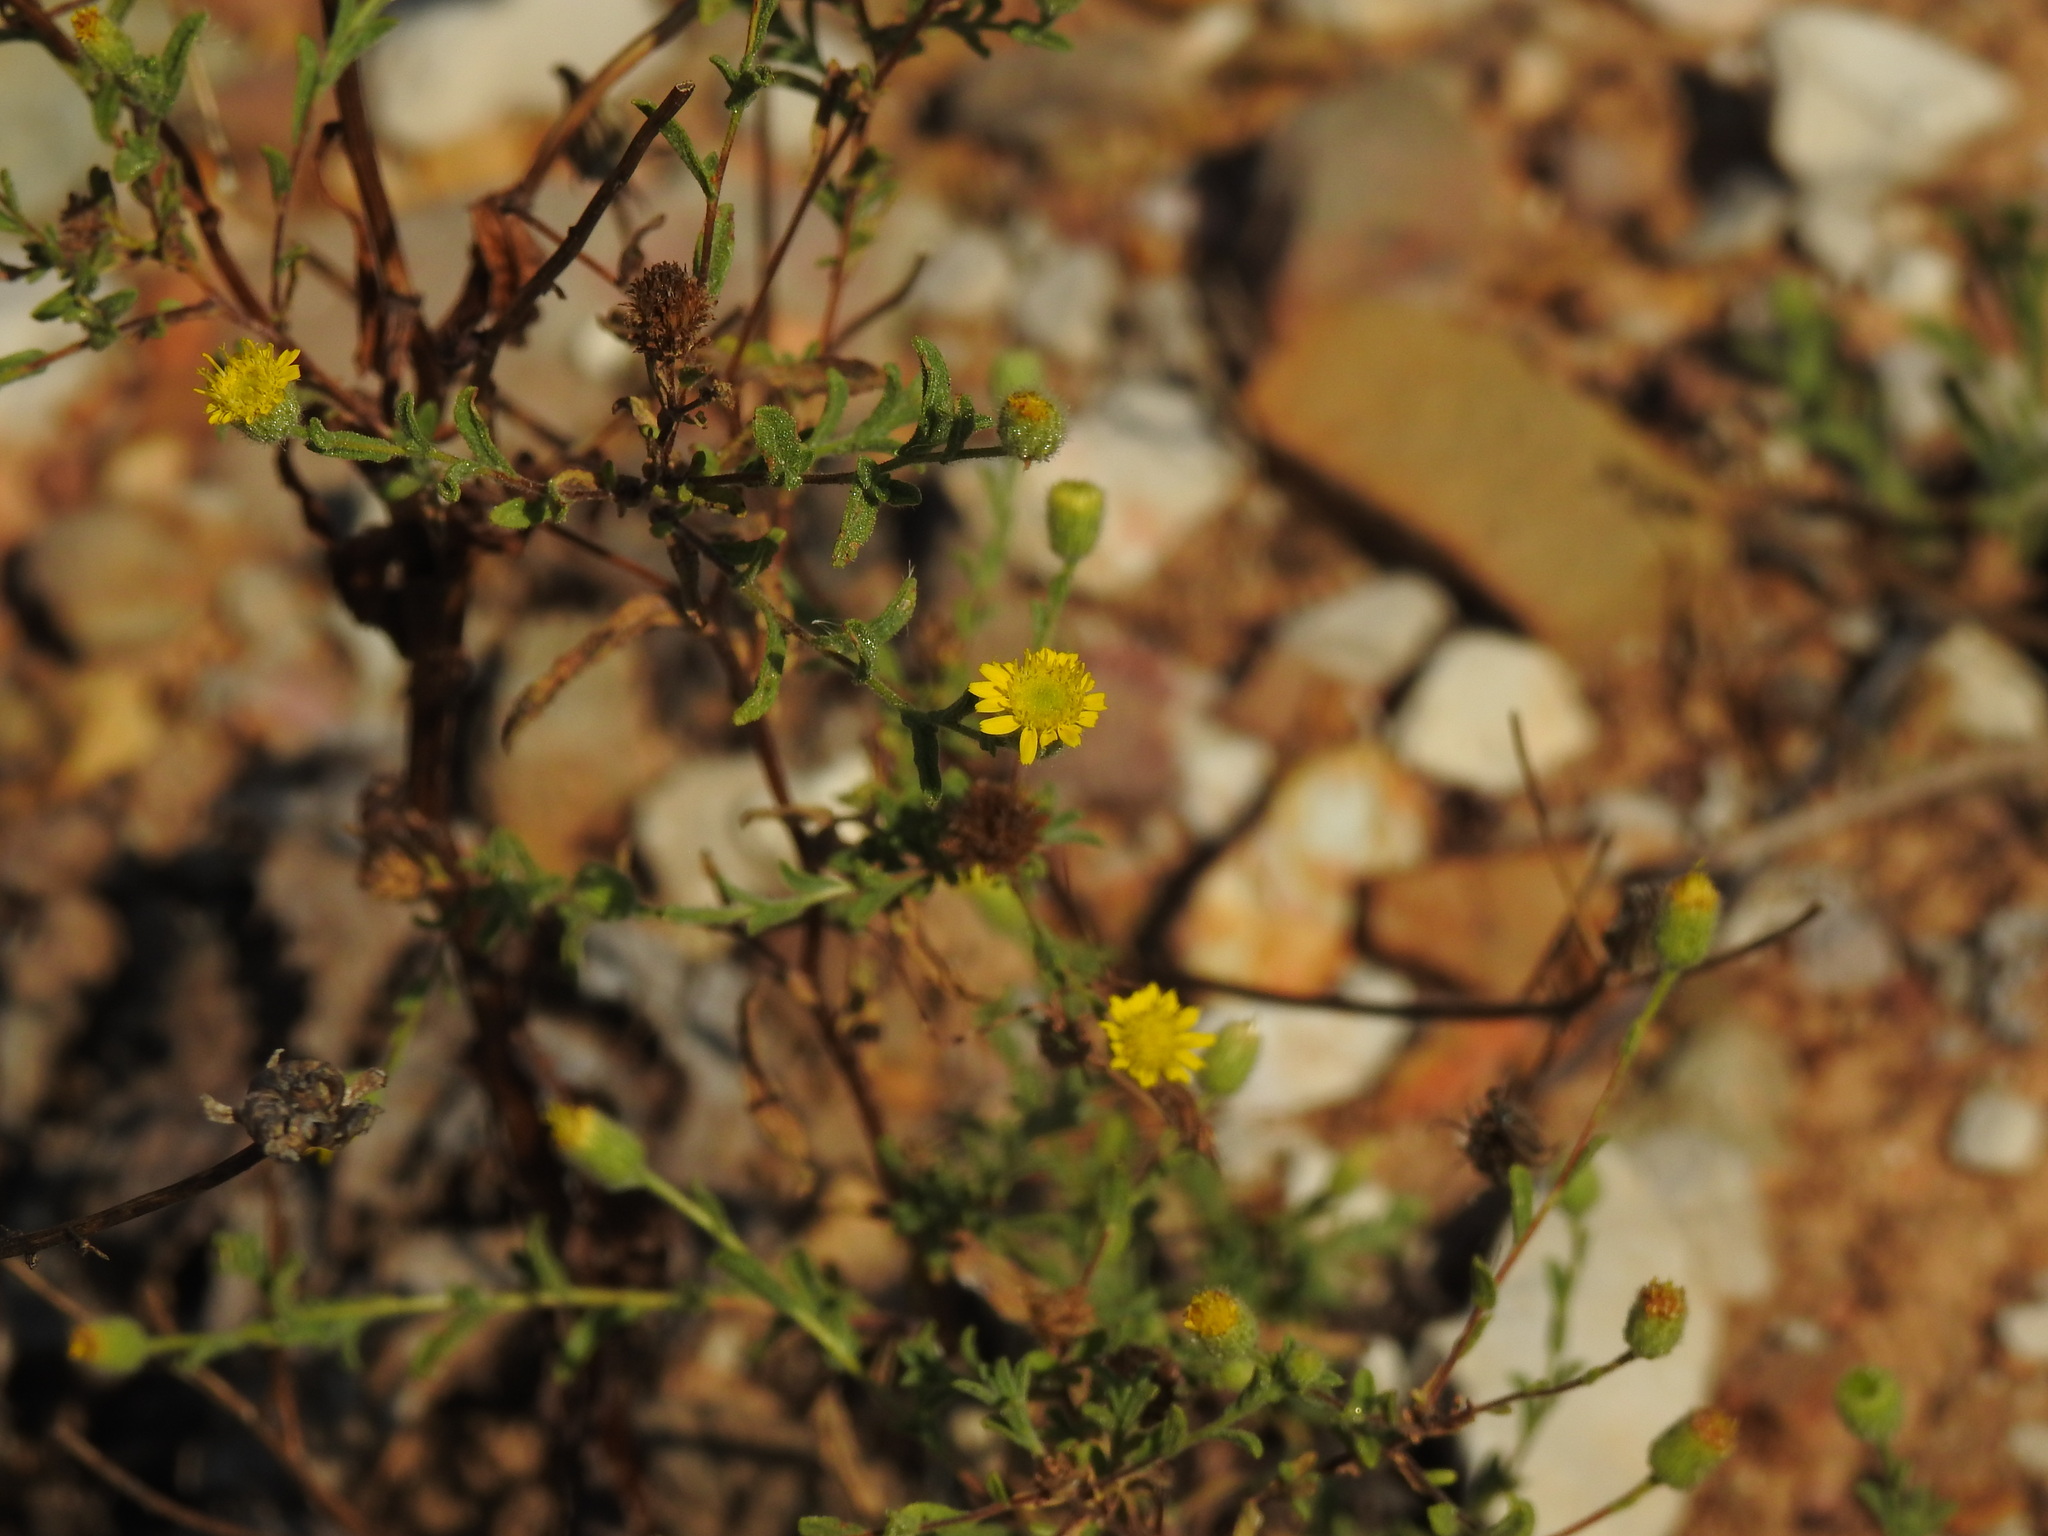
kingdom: Plantae
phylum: Tracheophyta
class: Magnoliopsida
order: Asterales
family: Asteraceae
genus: Pulicaria
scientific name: Pulicaria paludosa
